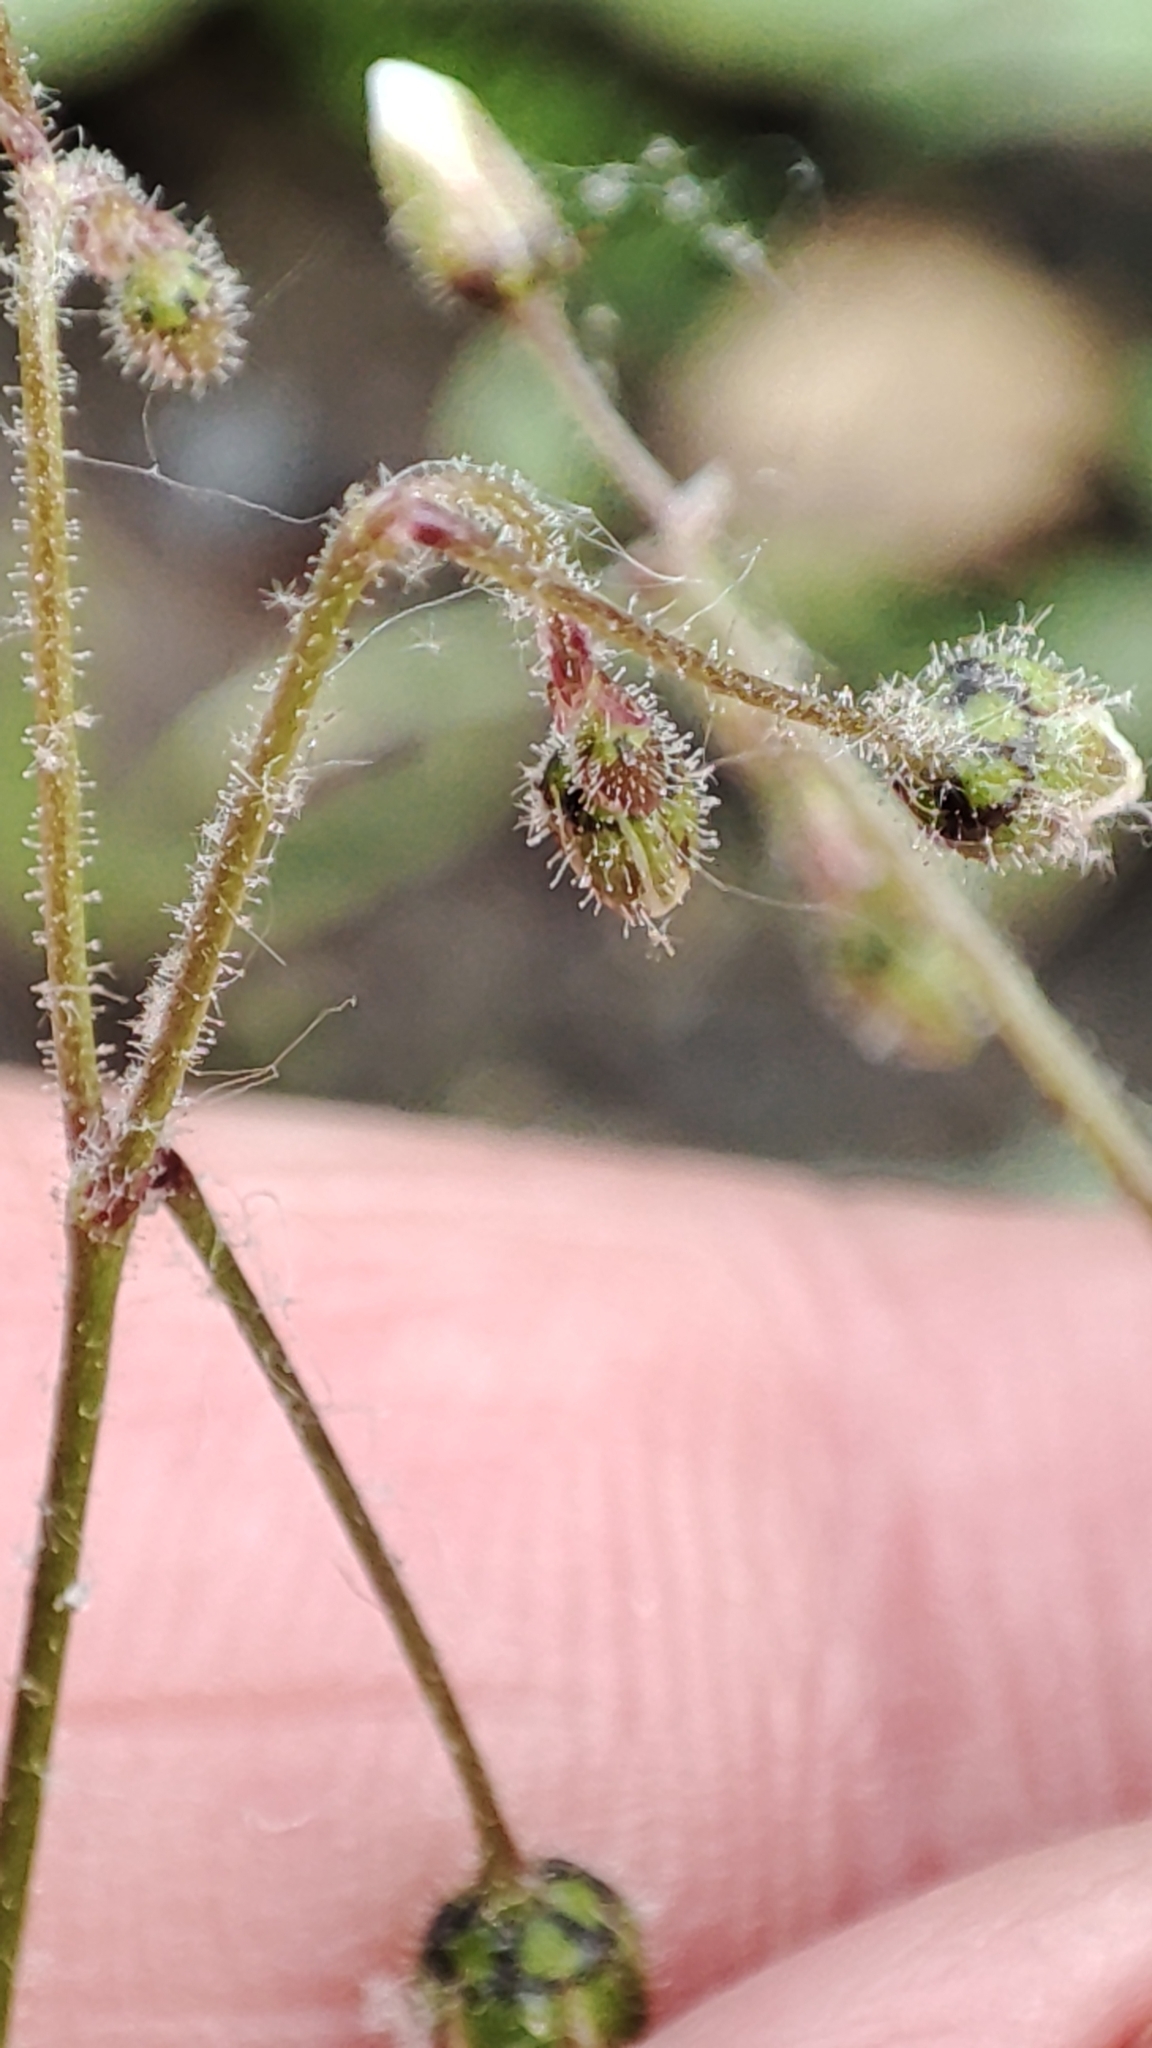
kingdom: Plantae
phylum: Tracheophyta
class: Magnoliopsida
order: Caryophyllales
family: Caryophyllaceae
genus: Spergula
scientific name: Spergula arvensis
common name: Corn spurrey
